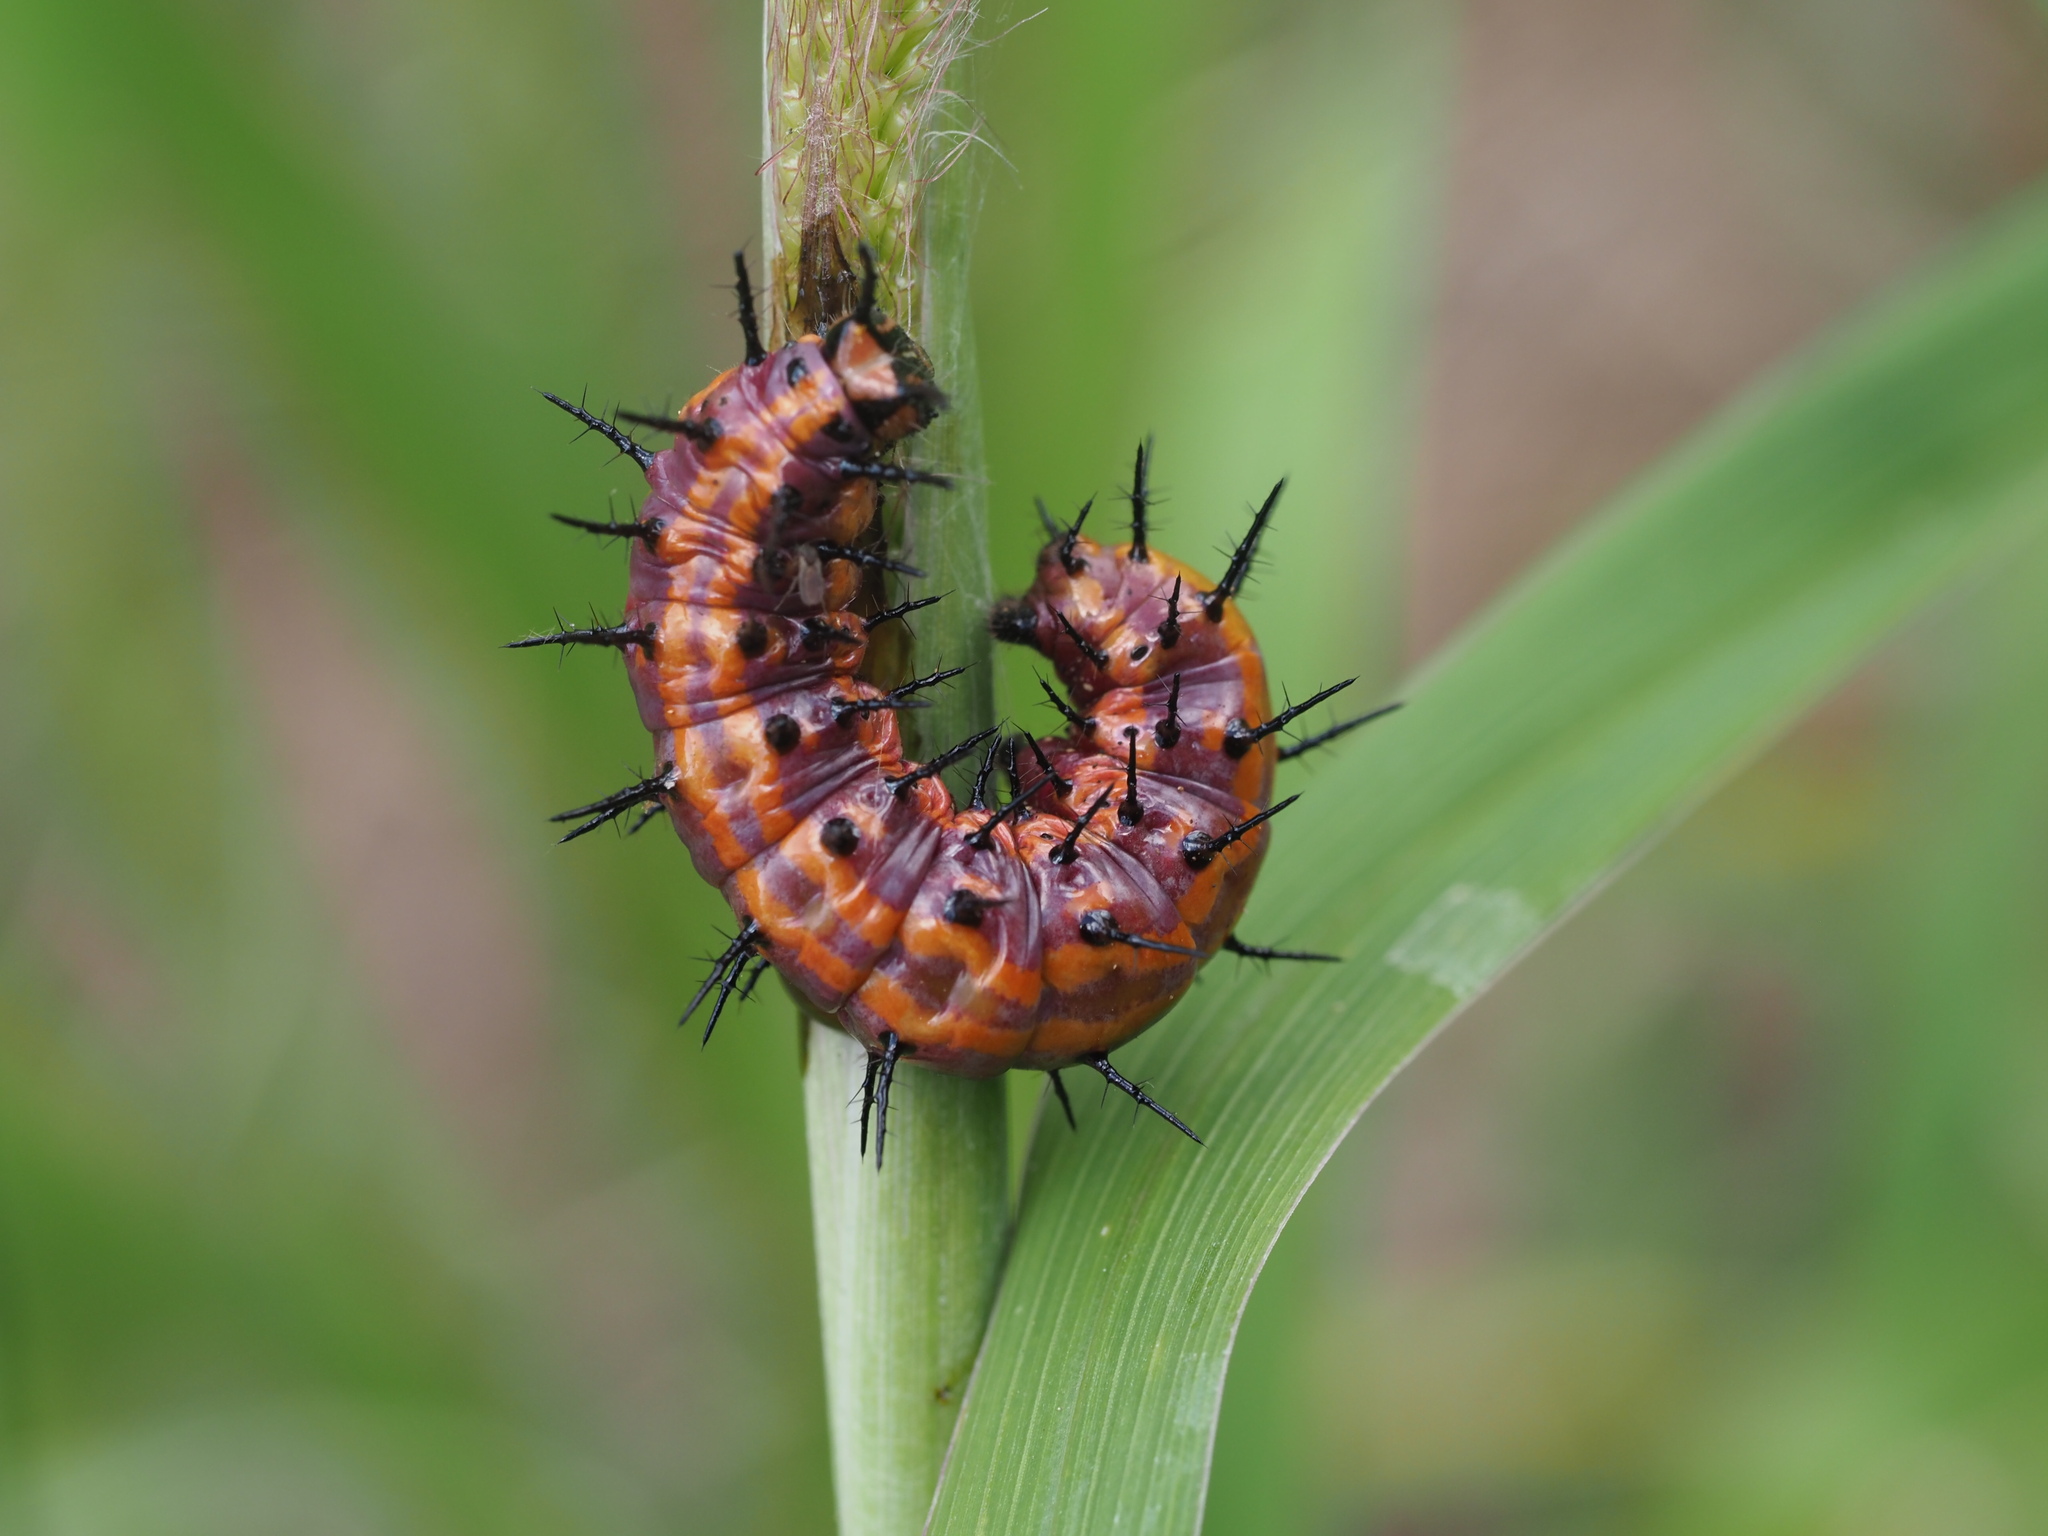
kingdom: Animalia
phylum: Arthropoda
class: Insecta
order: Lepidoptera
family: Nymphalidae
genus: Dione
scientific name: Dione vanillae
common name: Gulf fritillary
